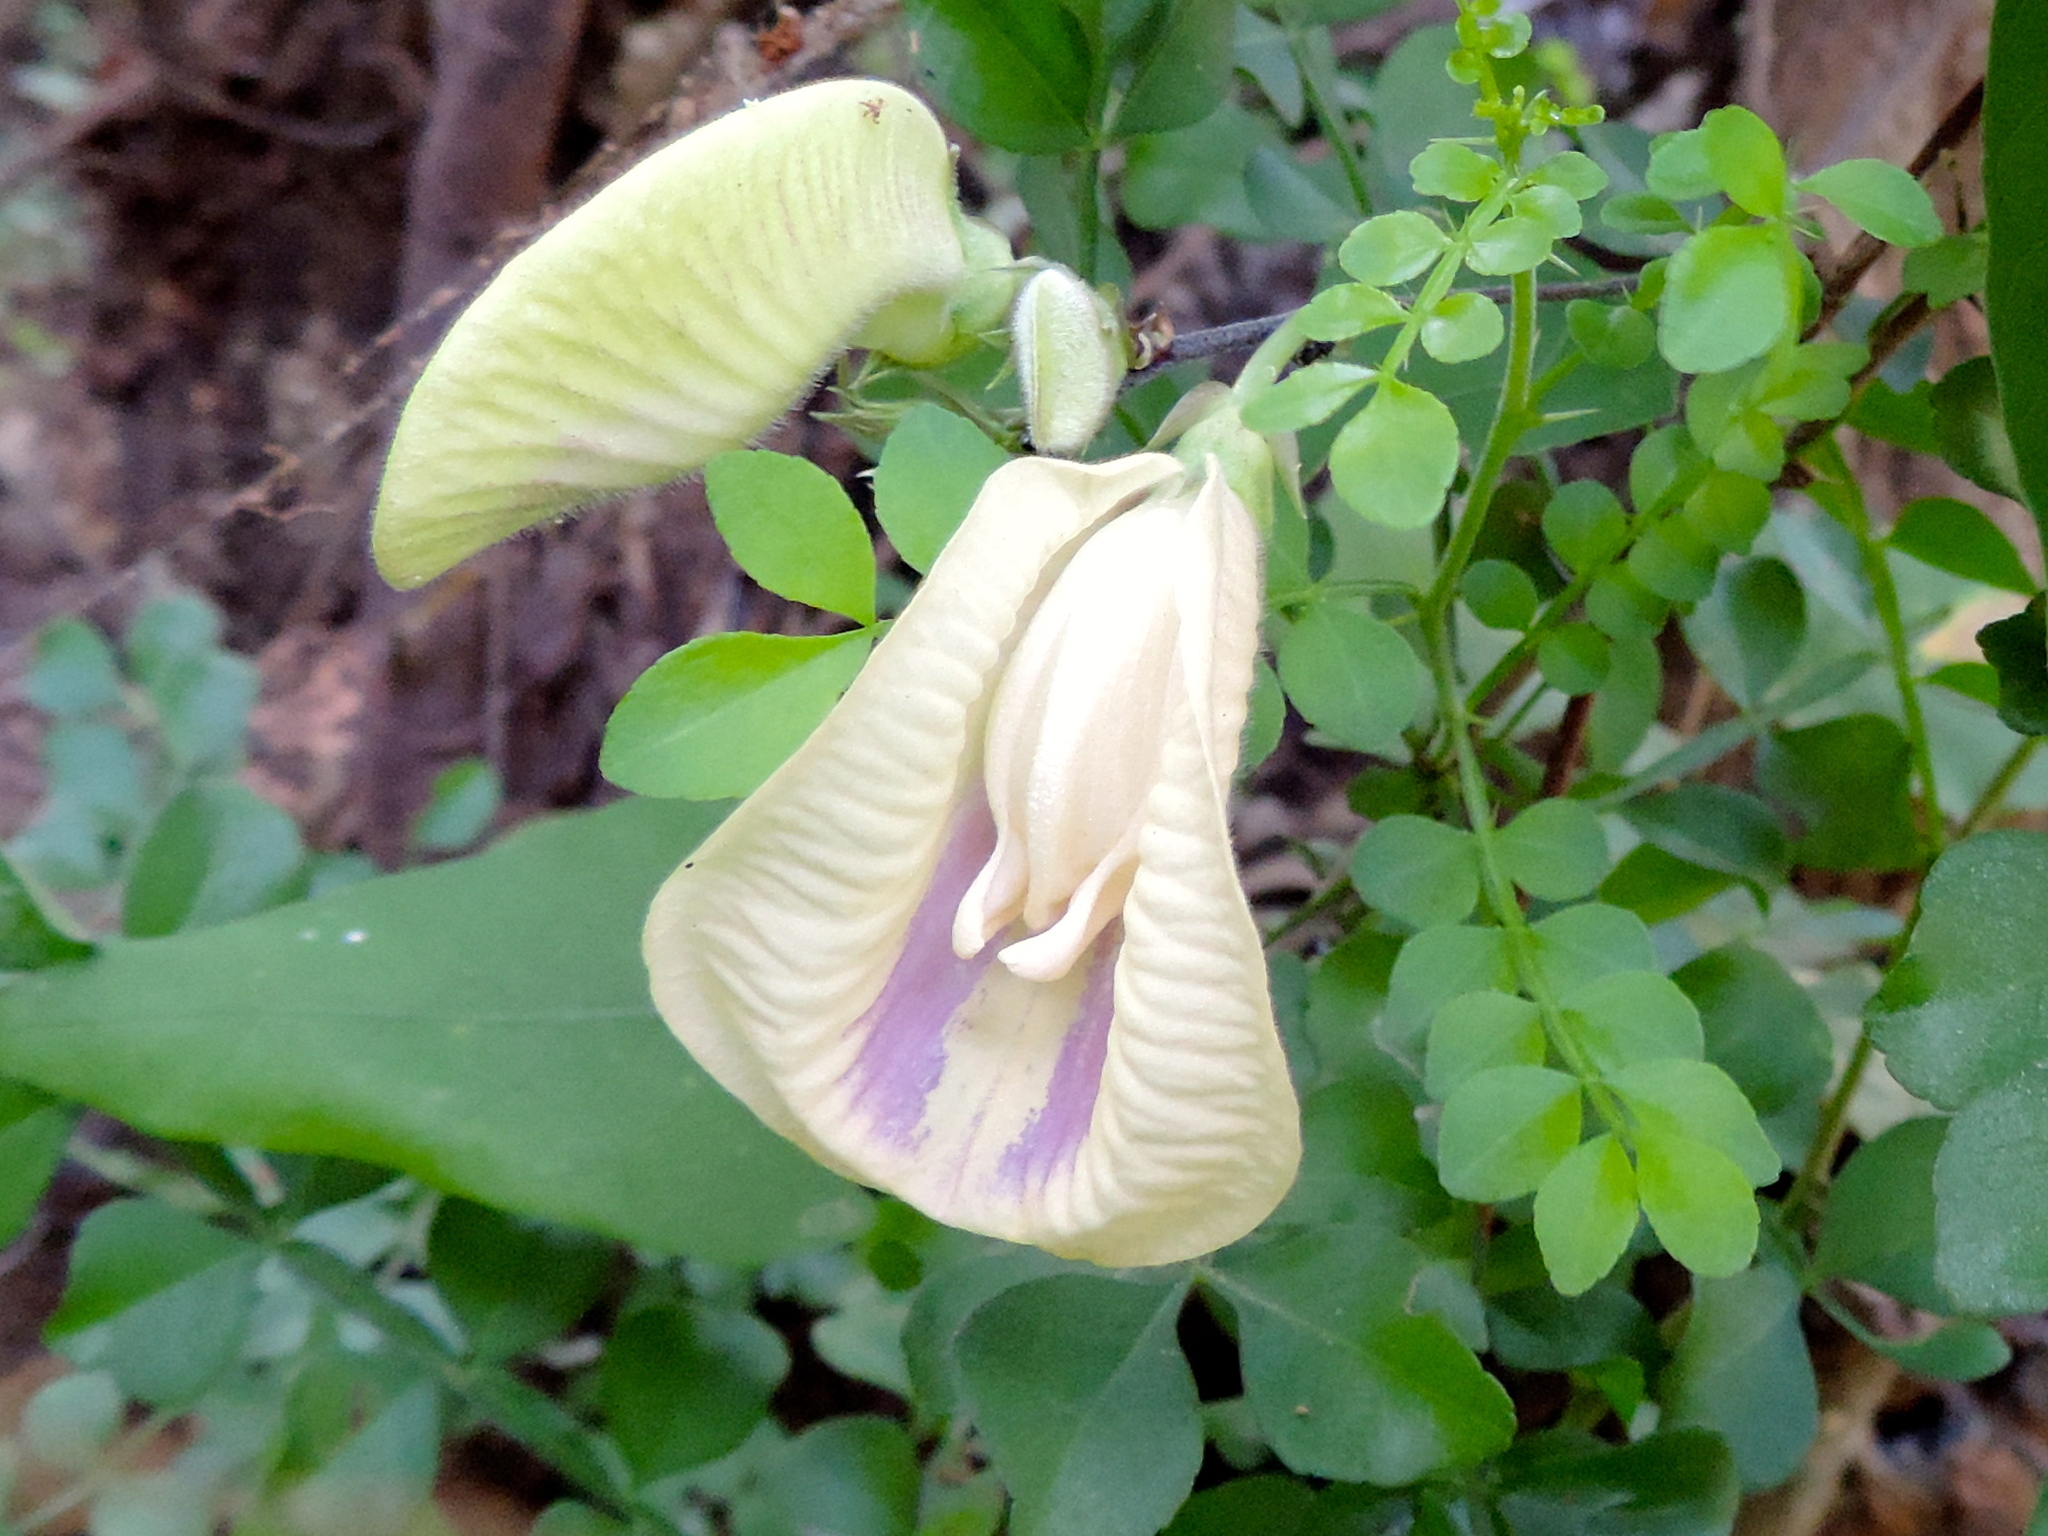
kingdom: Plantae
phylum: Tracheophyta
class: Magnoliopsida
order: Fabales
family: Fabaceae
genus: Centrosema
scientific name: Centrosema sagittatum
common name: Arrowleaf butterfly pea
